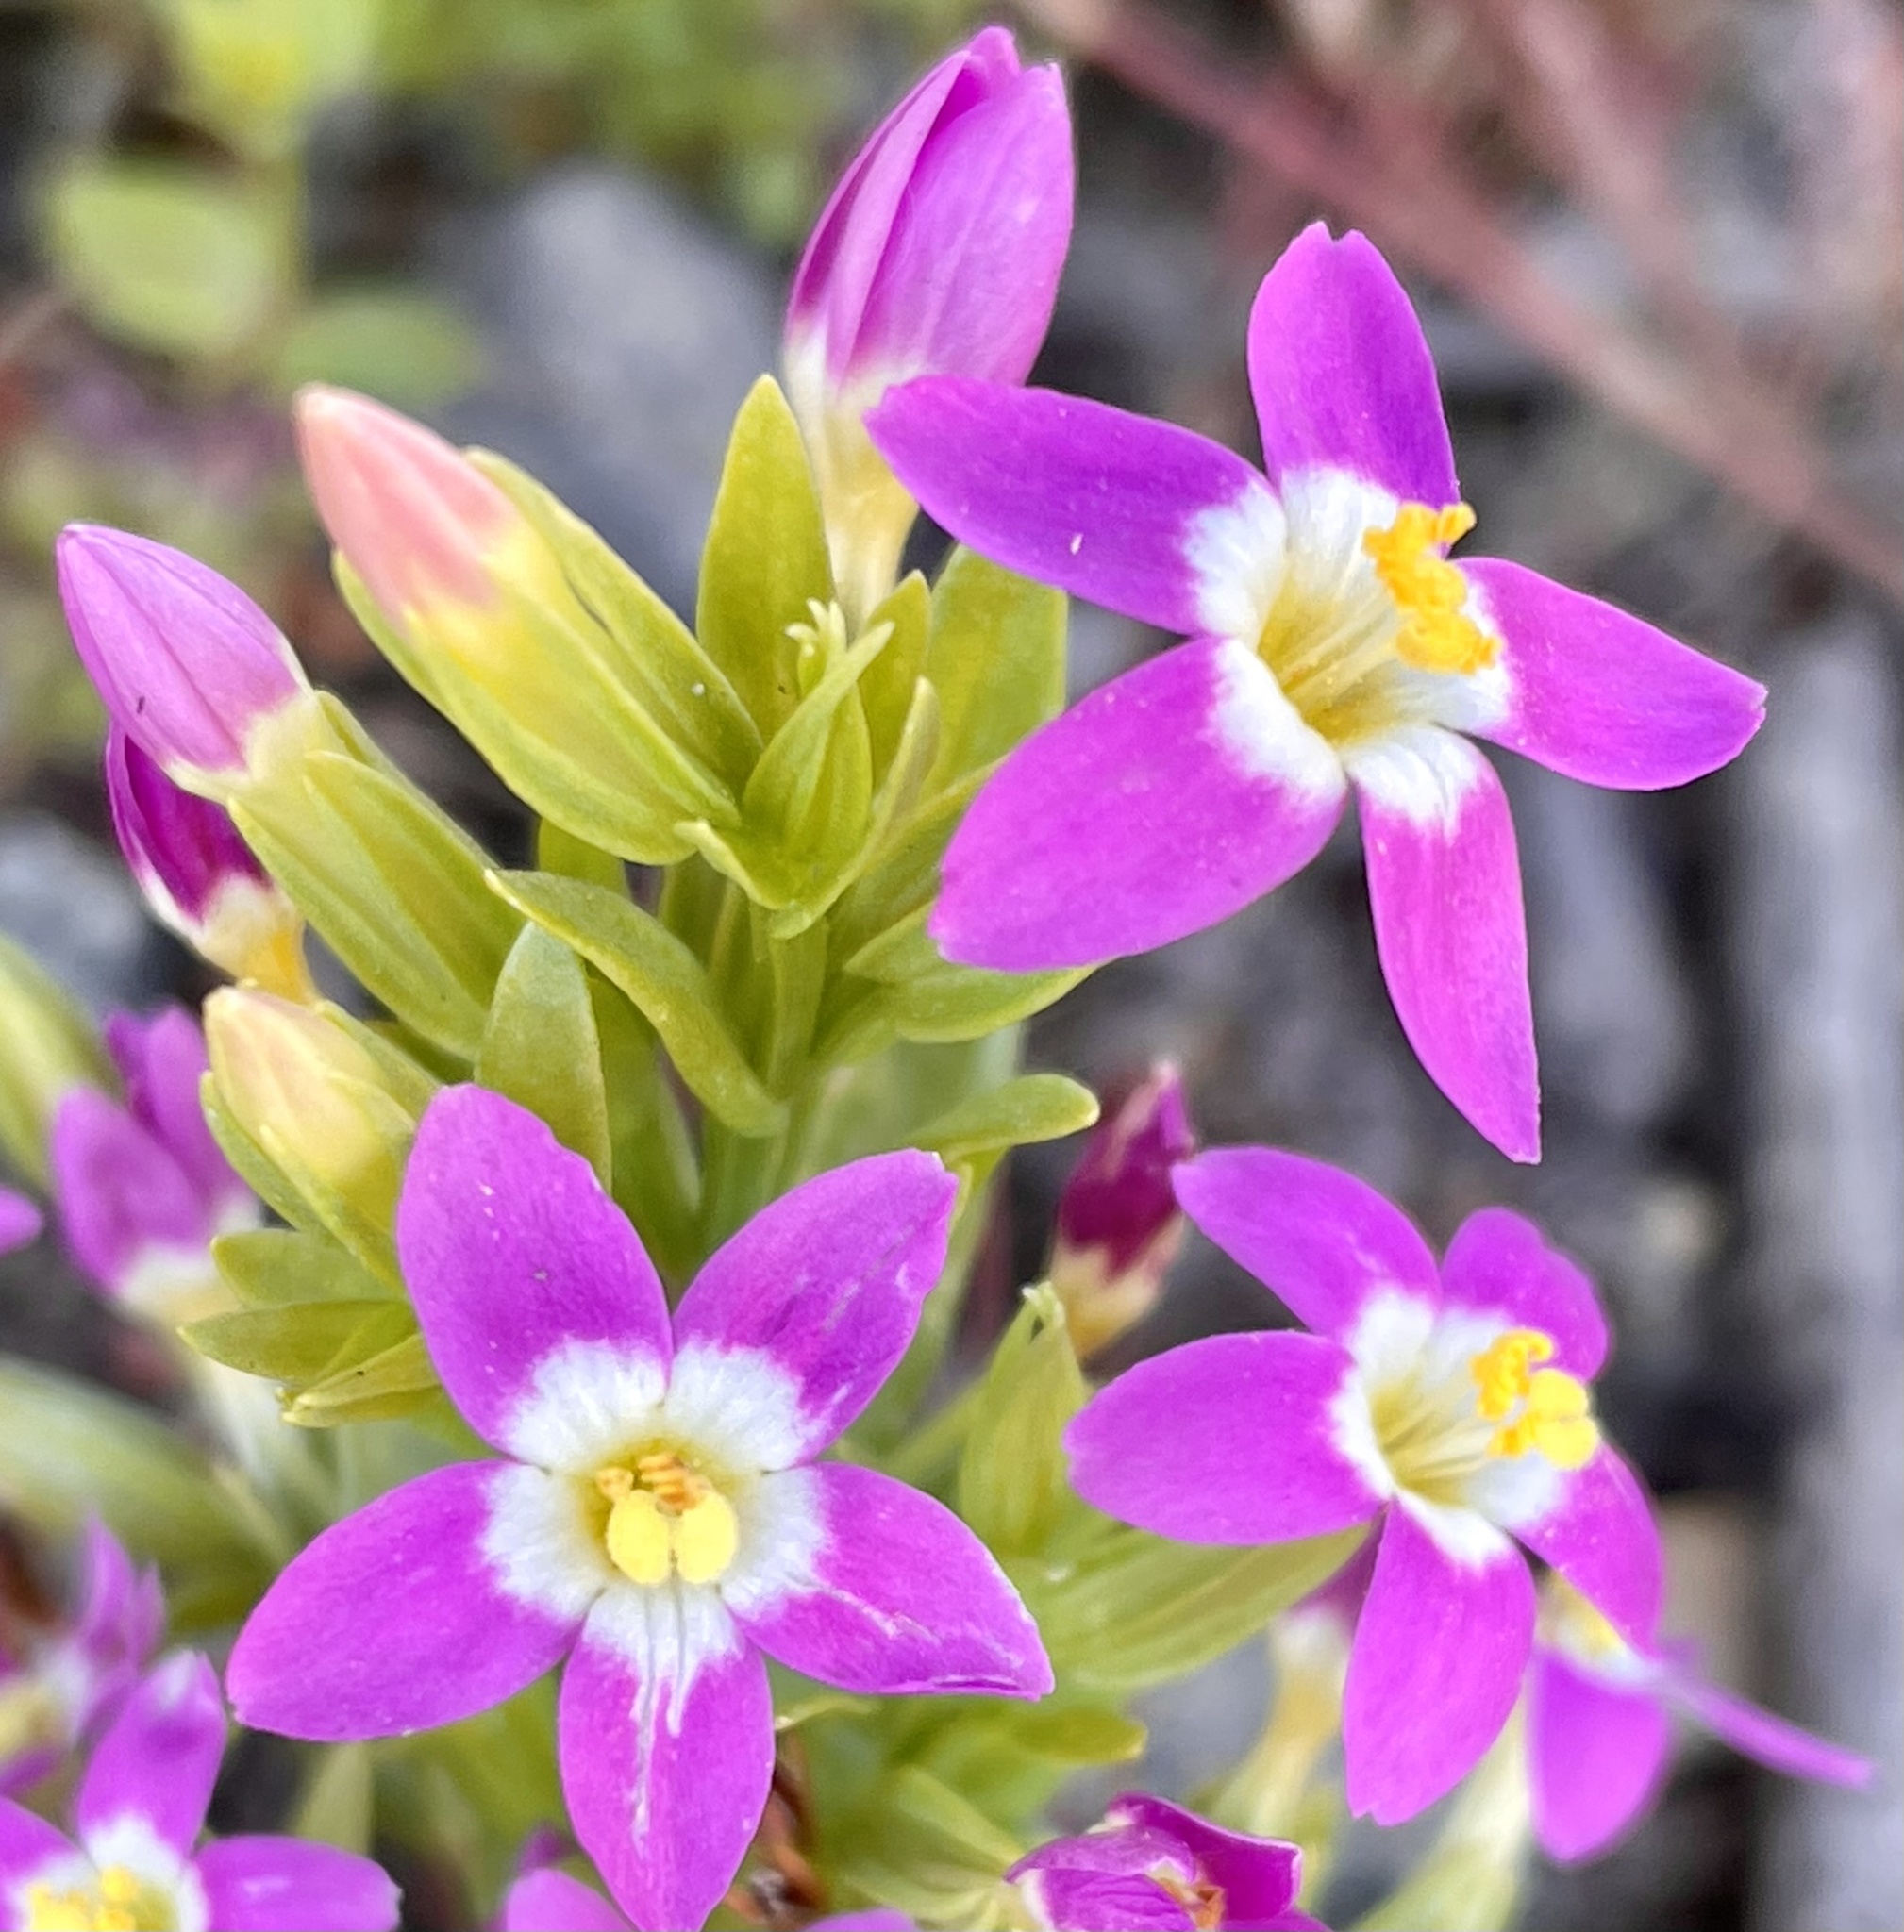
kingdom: Plantae
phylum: Tracheophyta
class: Magnoliopsida
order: Gentianales
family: Gentianaceae
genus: Zeltnera
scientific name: Zeltnera davyi
